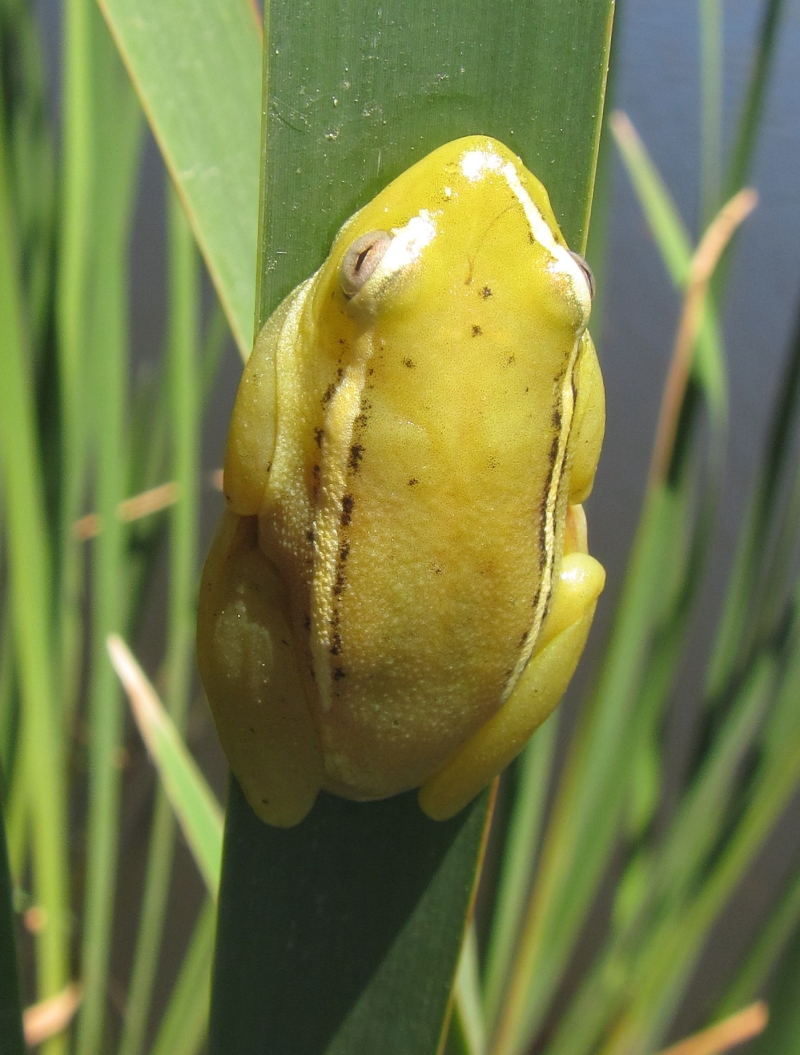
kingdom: Animalia
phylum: Chordata
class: Amphibia
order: Anura
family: Hyperoliidae
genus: Hyperolius
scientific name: Hyperolius argus
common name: Argus reed frog
